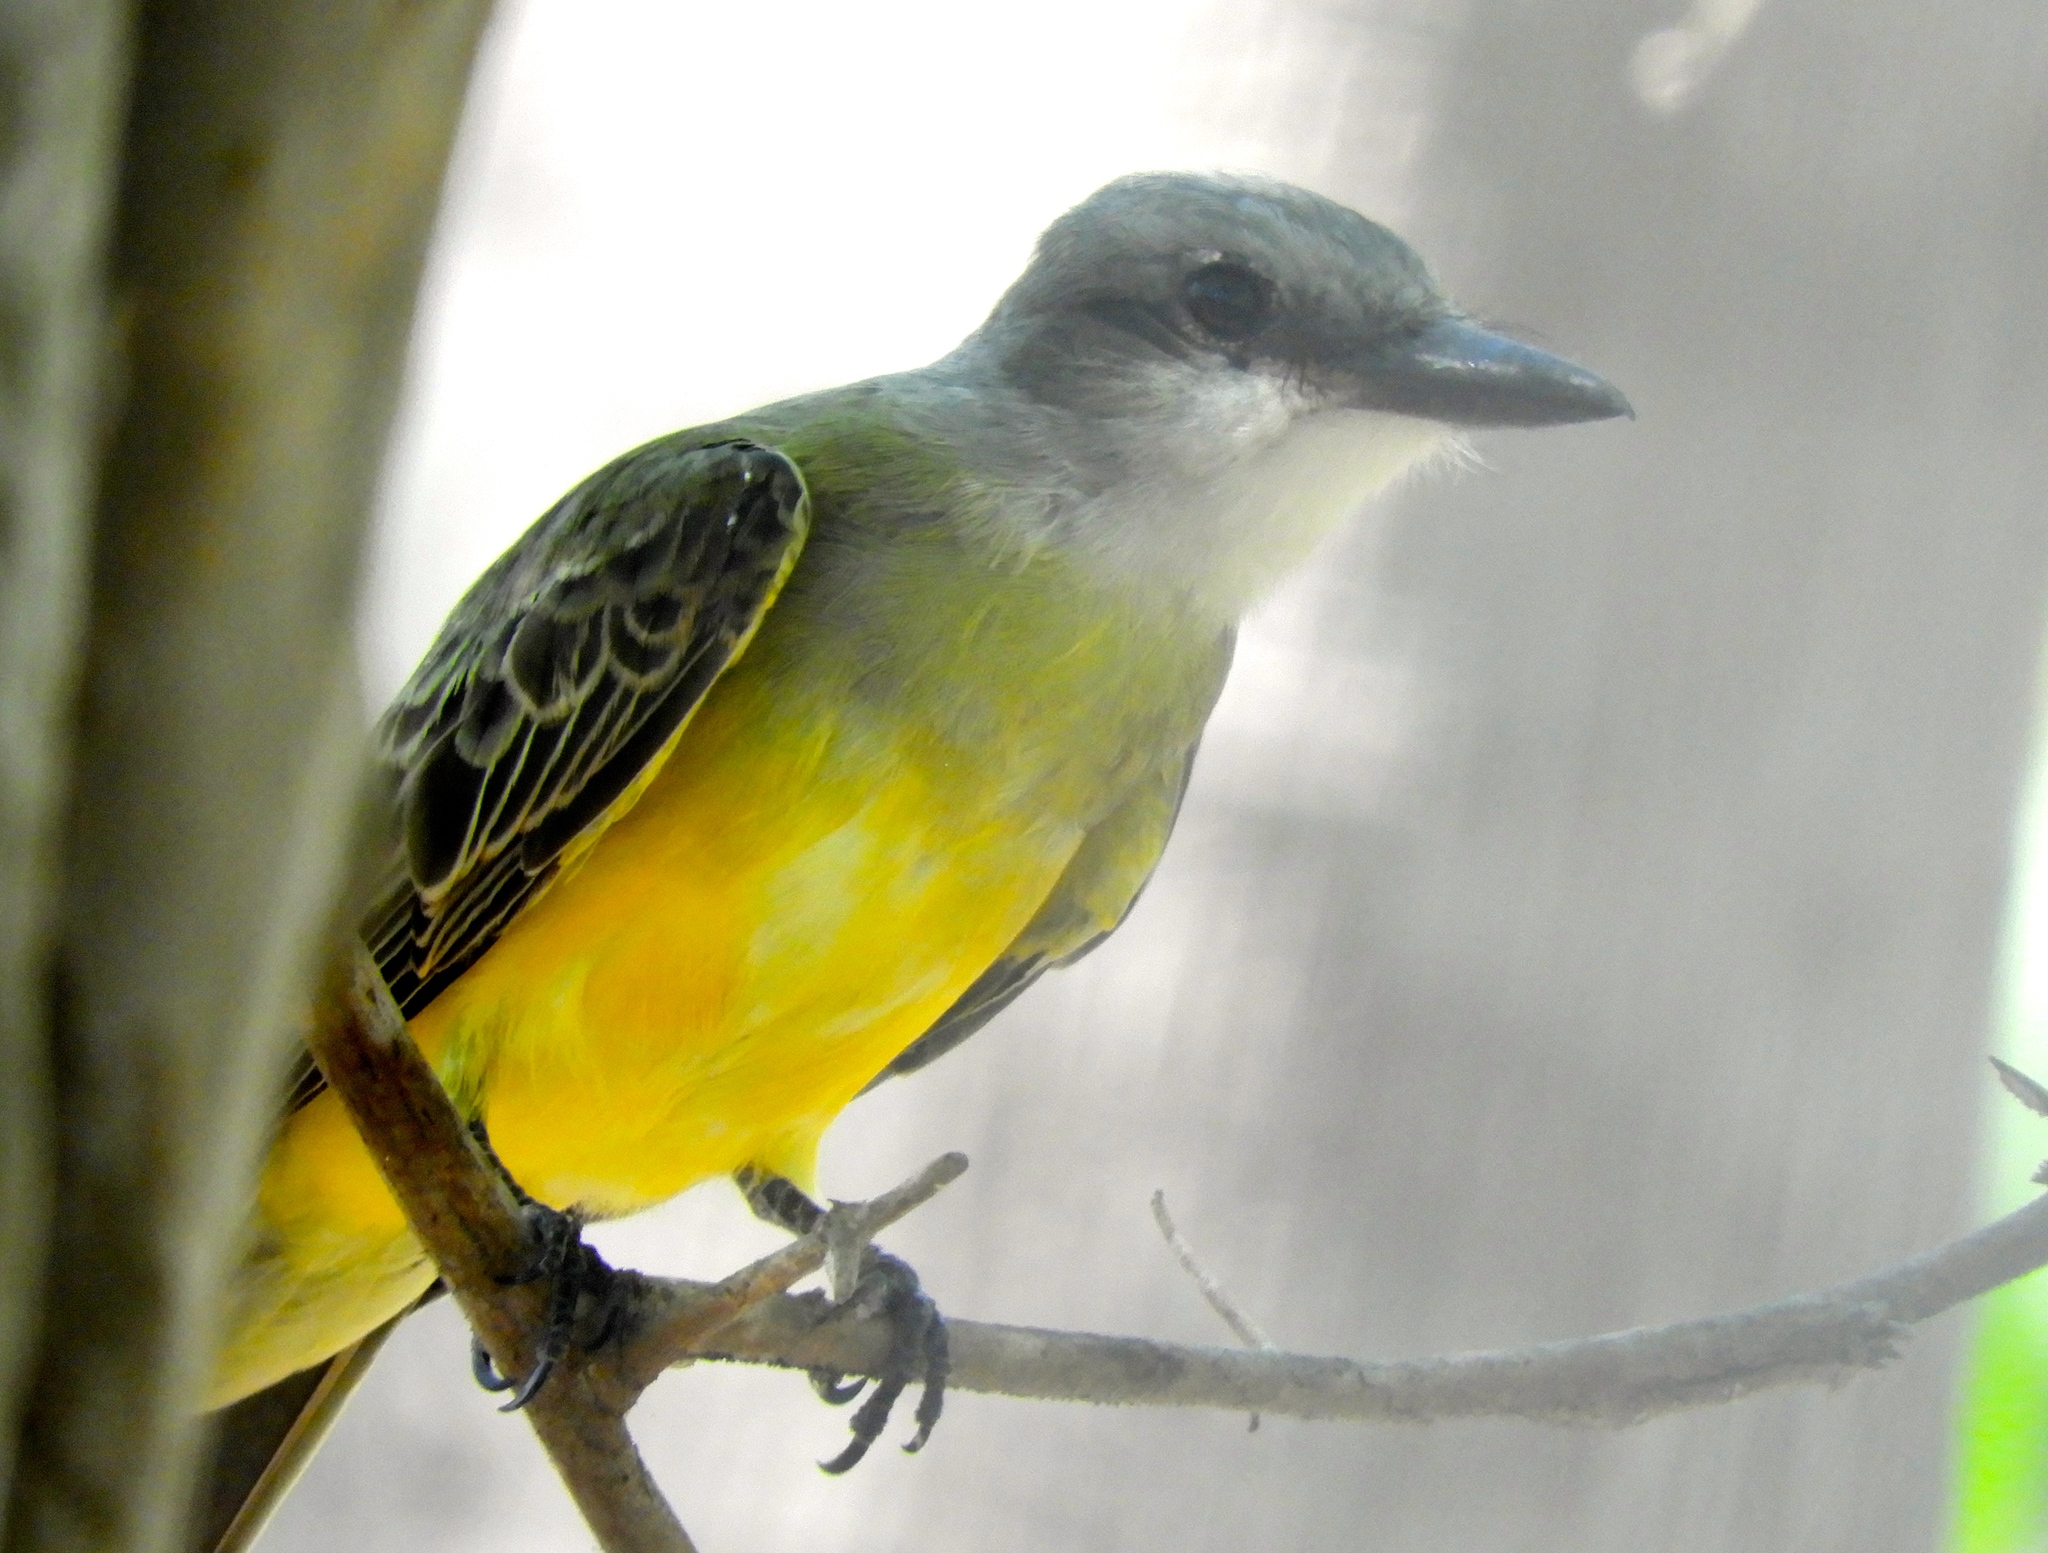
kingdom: Animalia
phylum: Chordata
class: Aves
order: Passeriformes
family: Tyrannidae
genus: Tyrannus
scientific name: Tyrannus melancholicus
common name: Tropical kingbird
